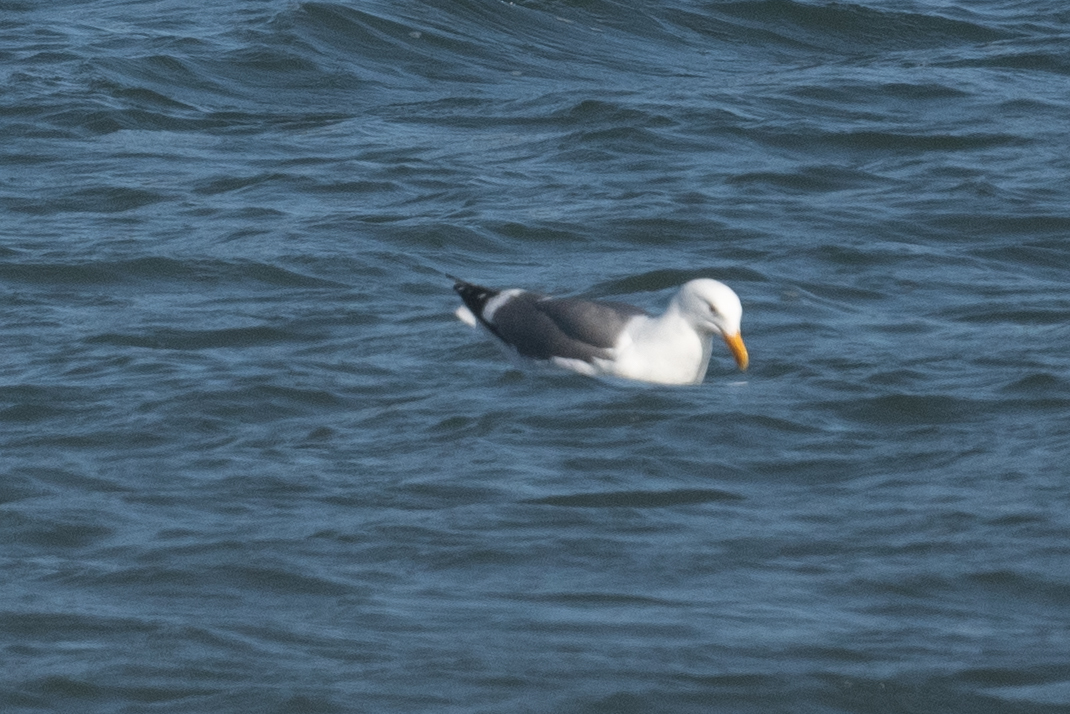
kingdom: Animalia
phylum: Chordata
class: Aves
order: Charadriiformes
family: Laridae
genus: Larus
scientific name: Larus occidentalis
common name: Western gull
